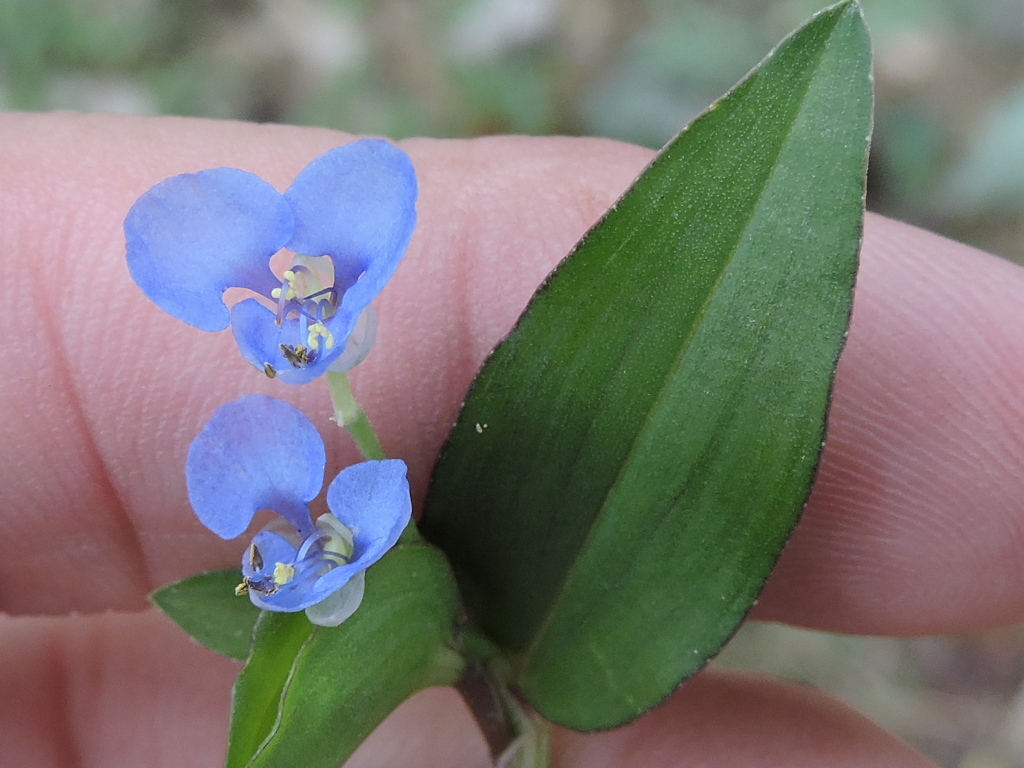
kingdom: Plantae
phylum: Tracheophyta
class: Liliopsida
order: Commelinales
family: Commelinaceae
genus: Commelina
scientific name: Commelina diffusa
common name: Climbing dayflower
